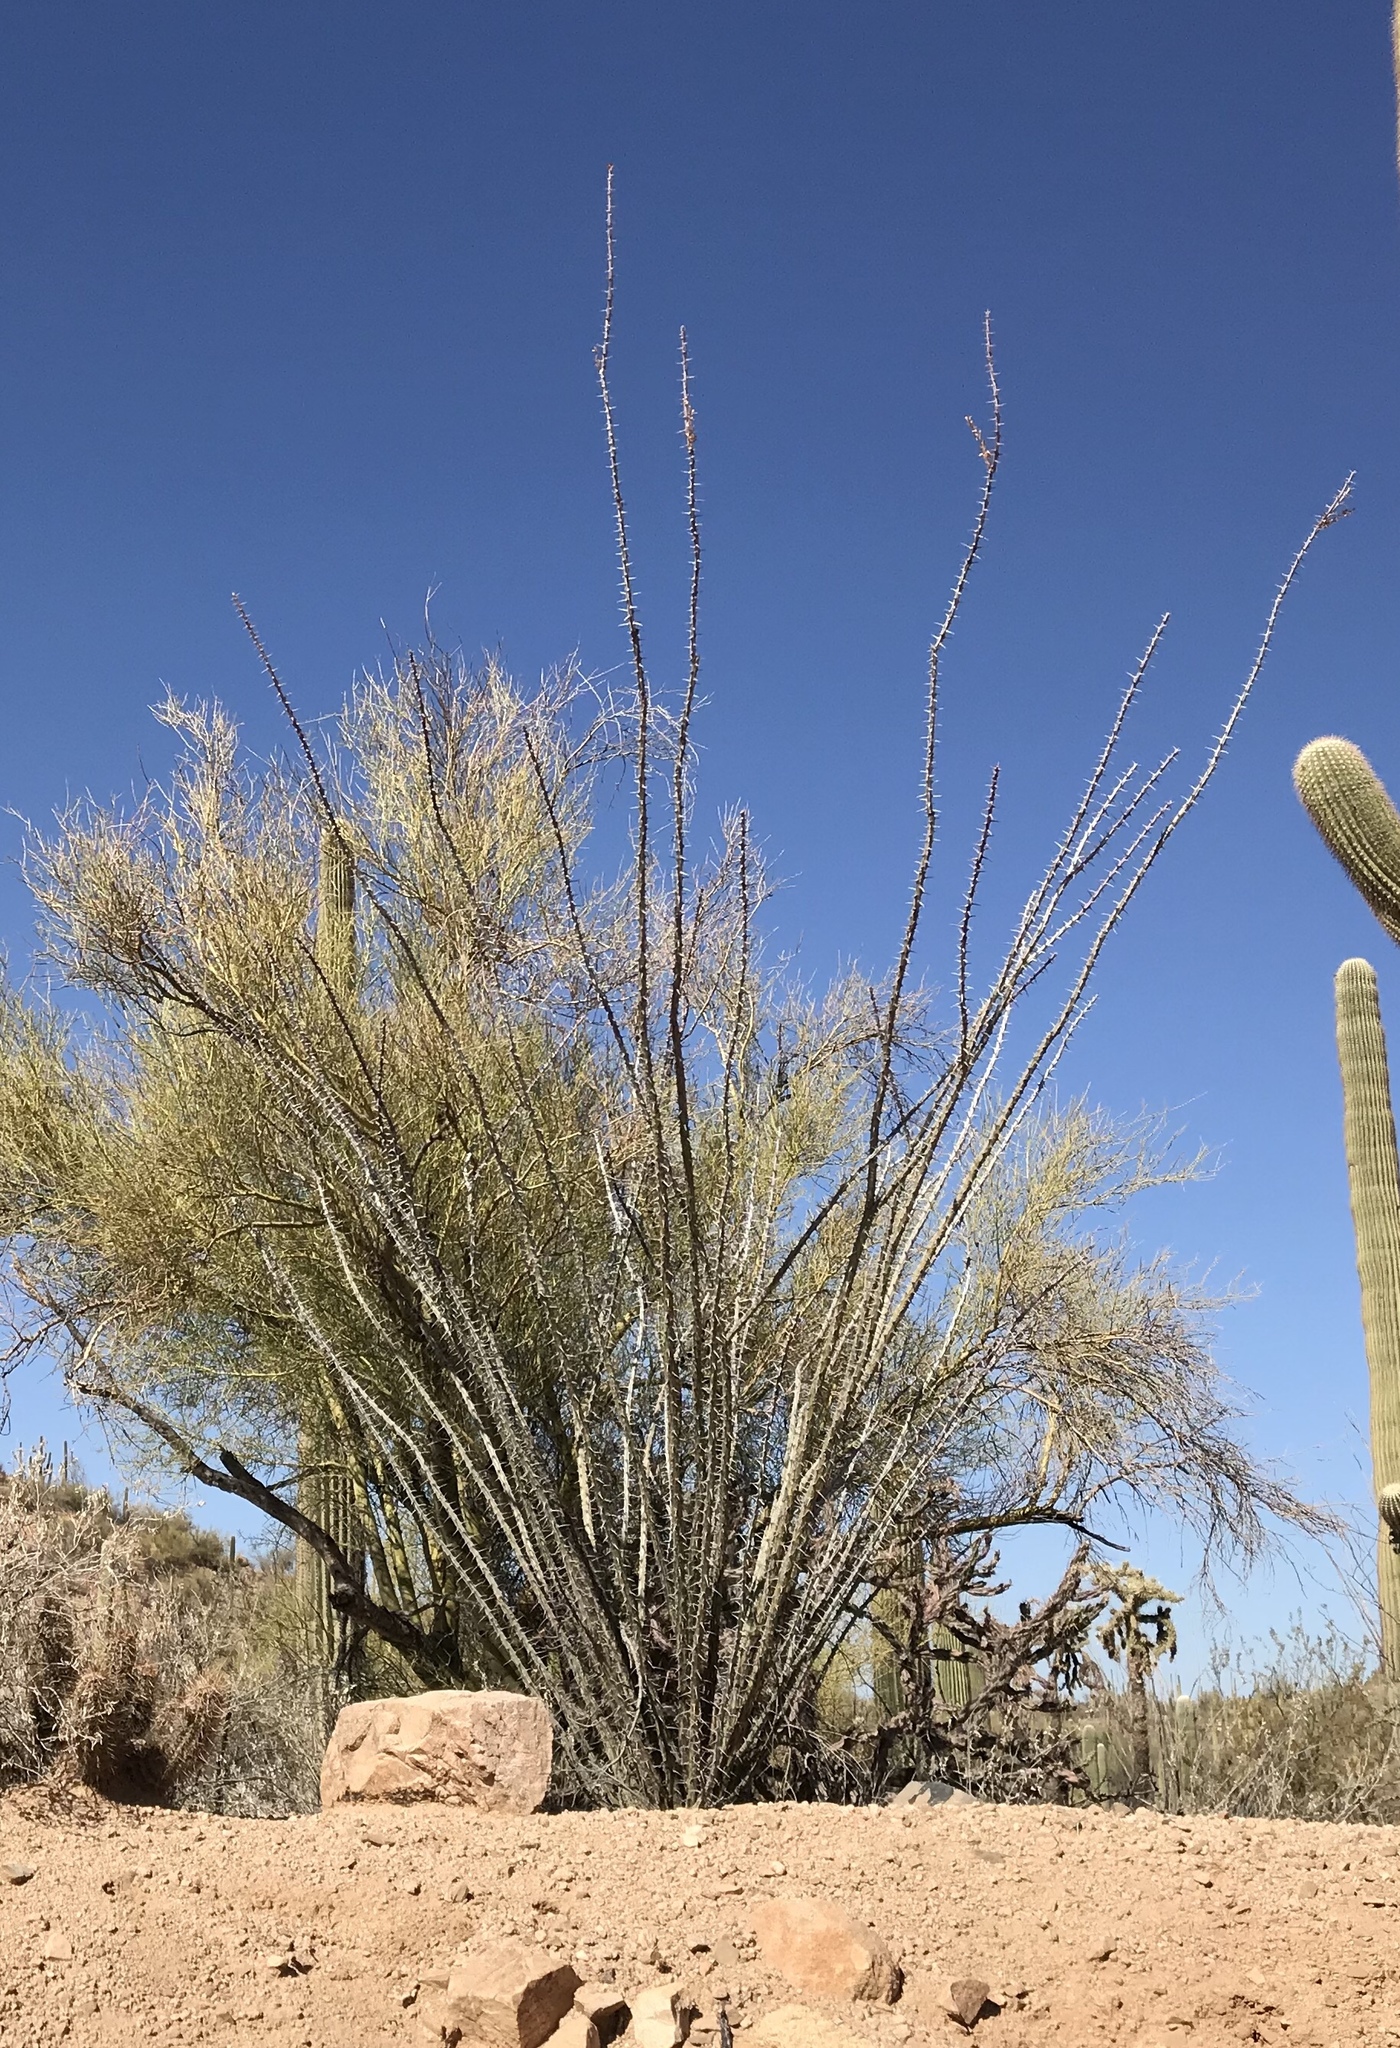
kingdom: Plantae
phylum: Tracheophyta
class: Magnoliopsida
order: Ericales
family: Fouquieriaceae
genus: Fouquieria
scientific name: Fouquieria splendens
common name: Vine-cactus
